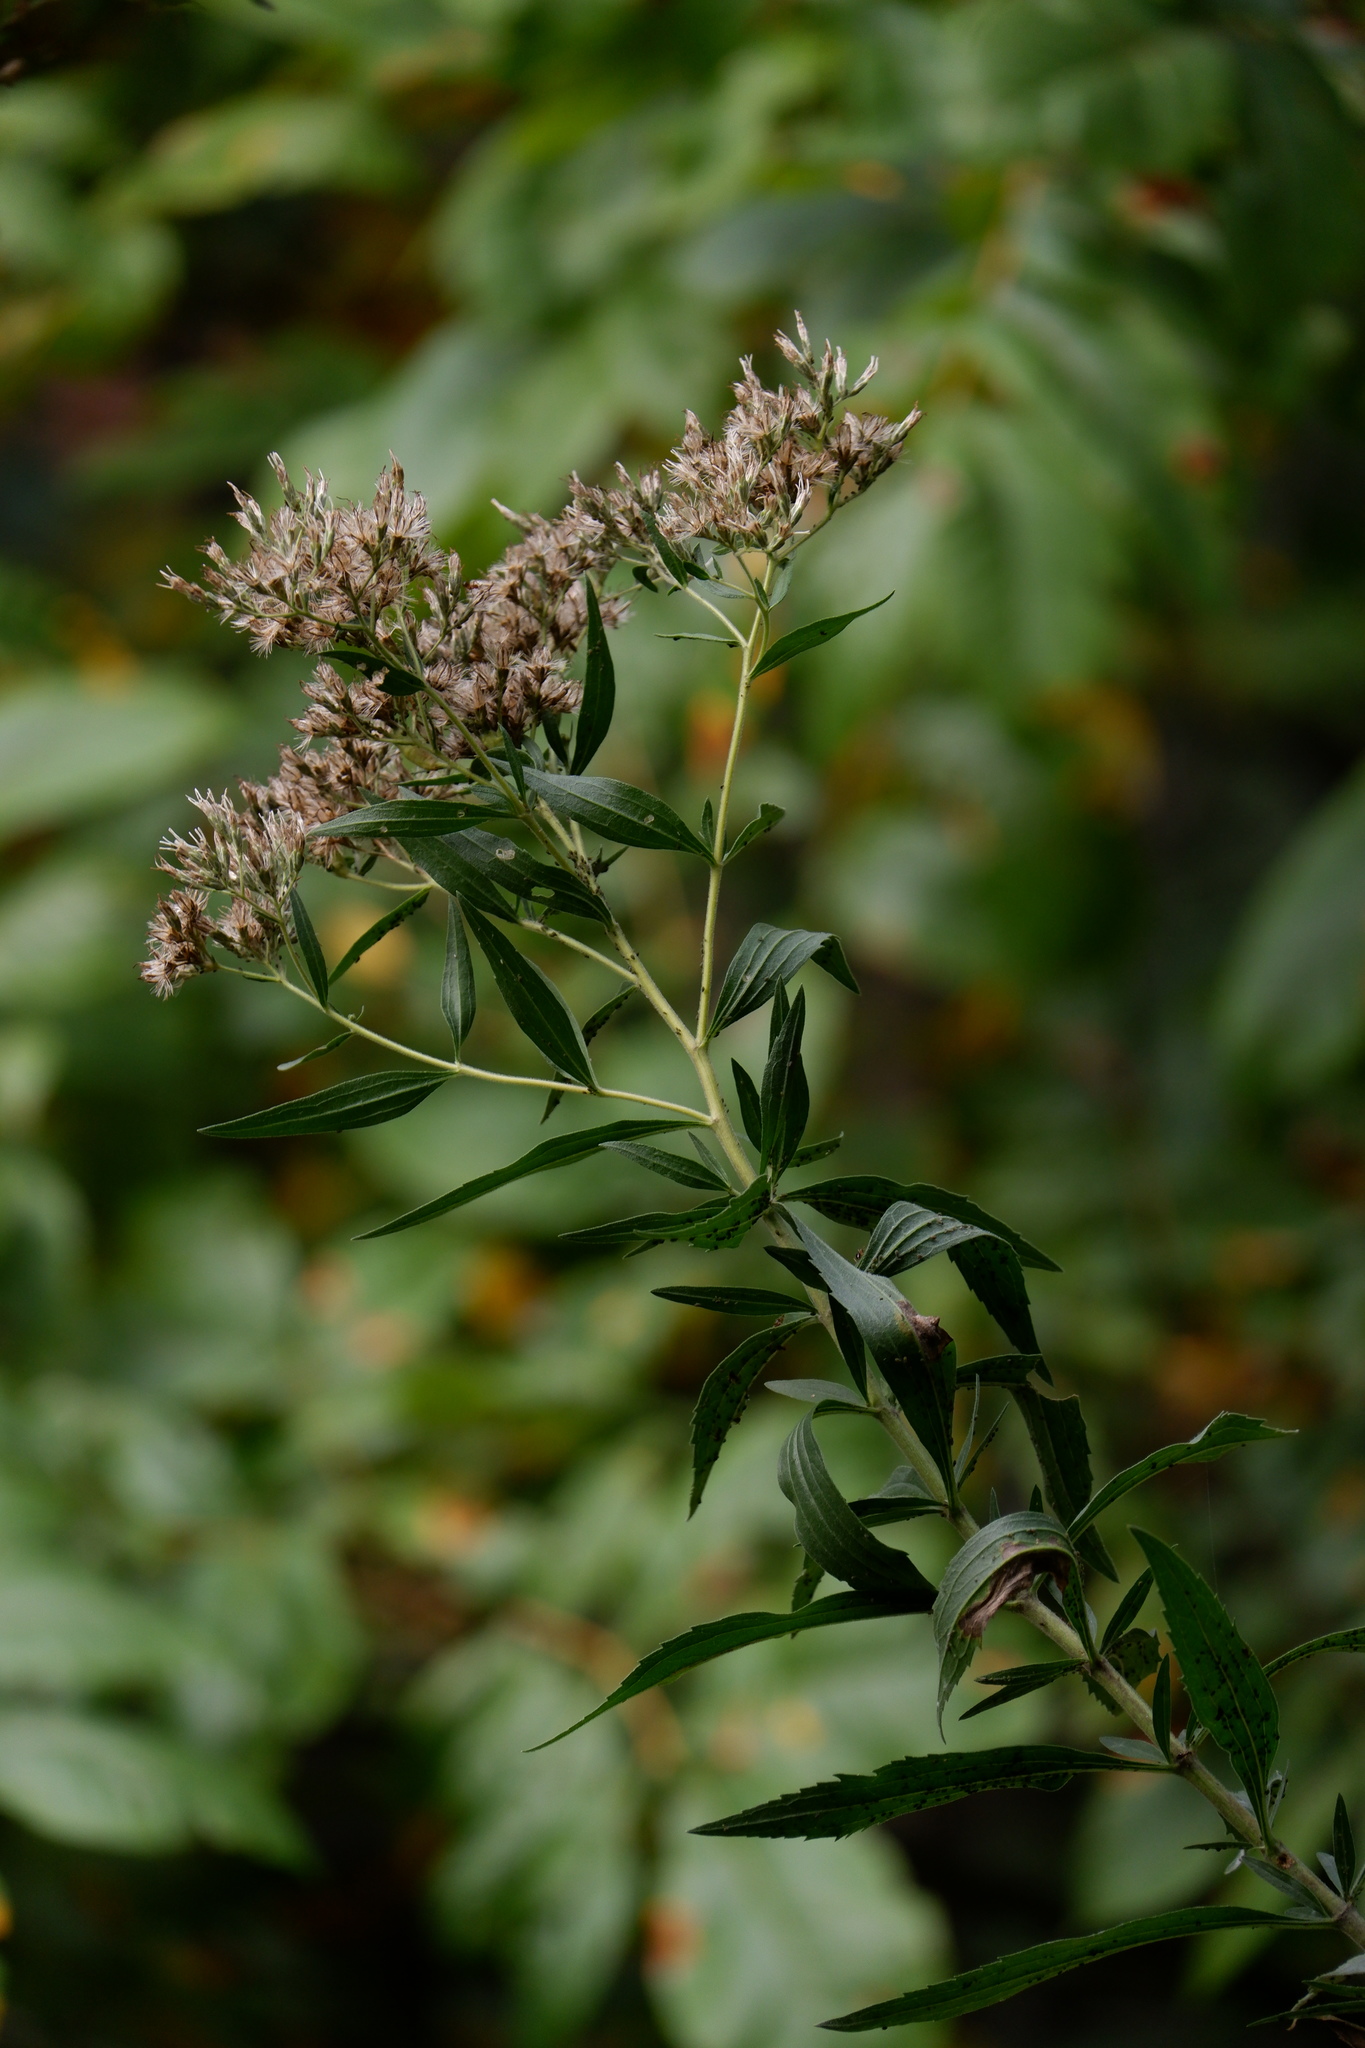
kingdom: Plantae
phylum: Tracheophyta
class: Magnoliopsida
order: Asterales
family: Asteraceae
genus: Eupatorium
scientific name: Eupatorium altissimum
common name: Tall thoroughwort
